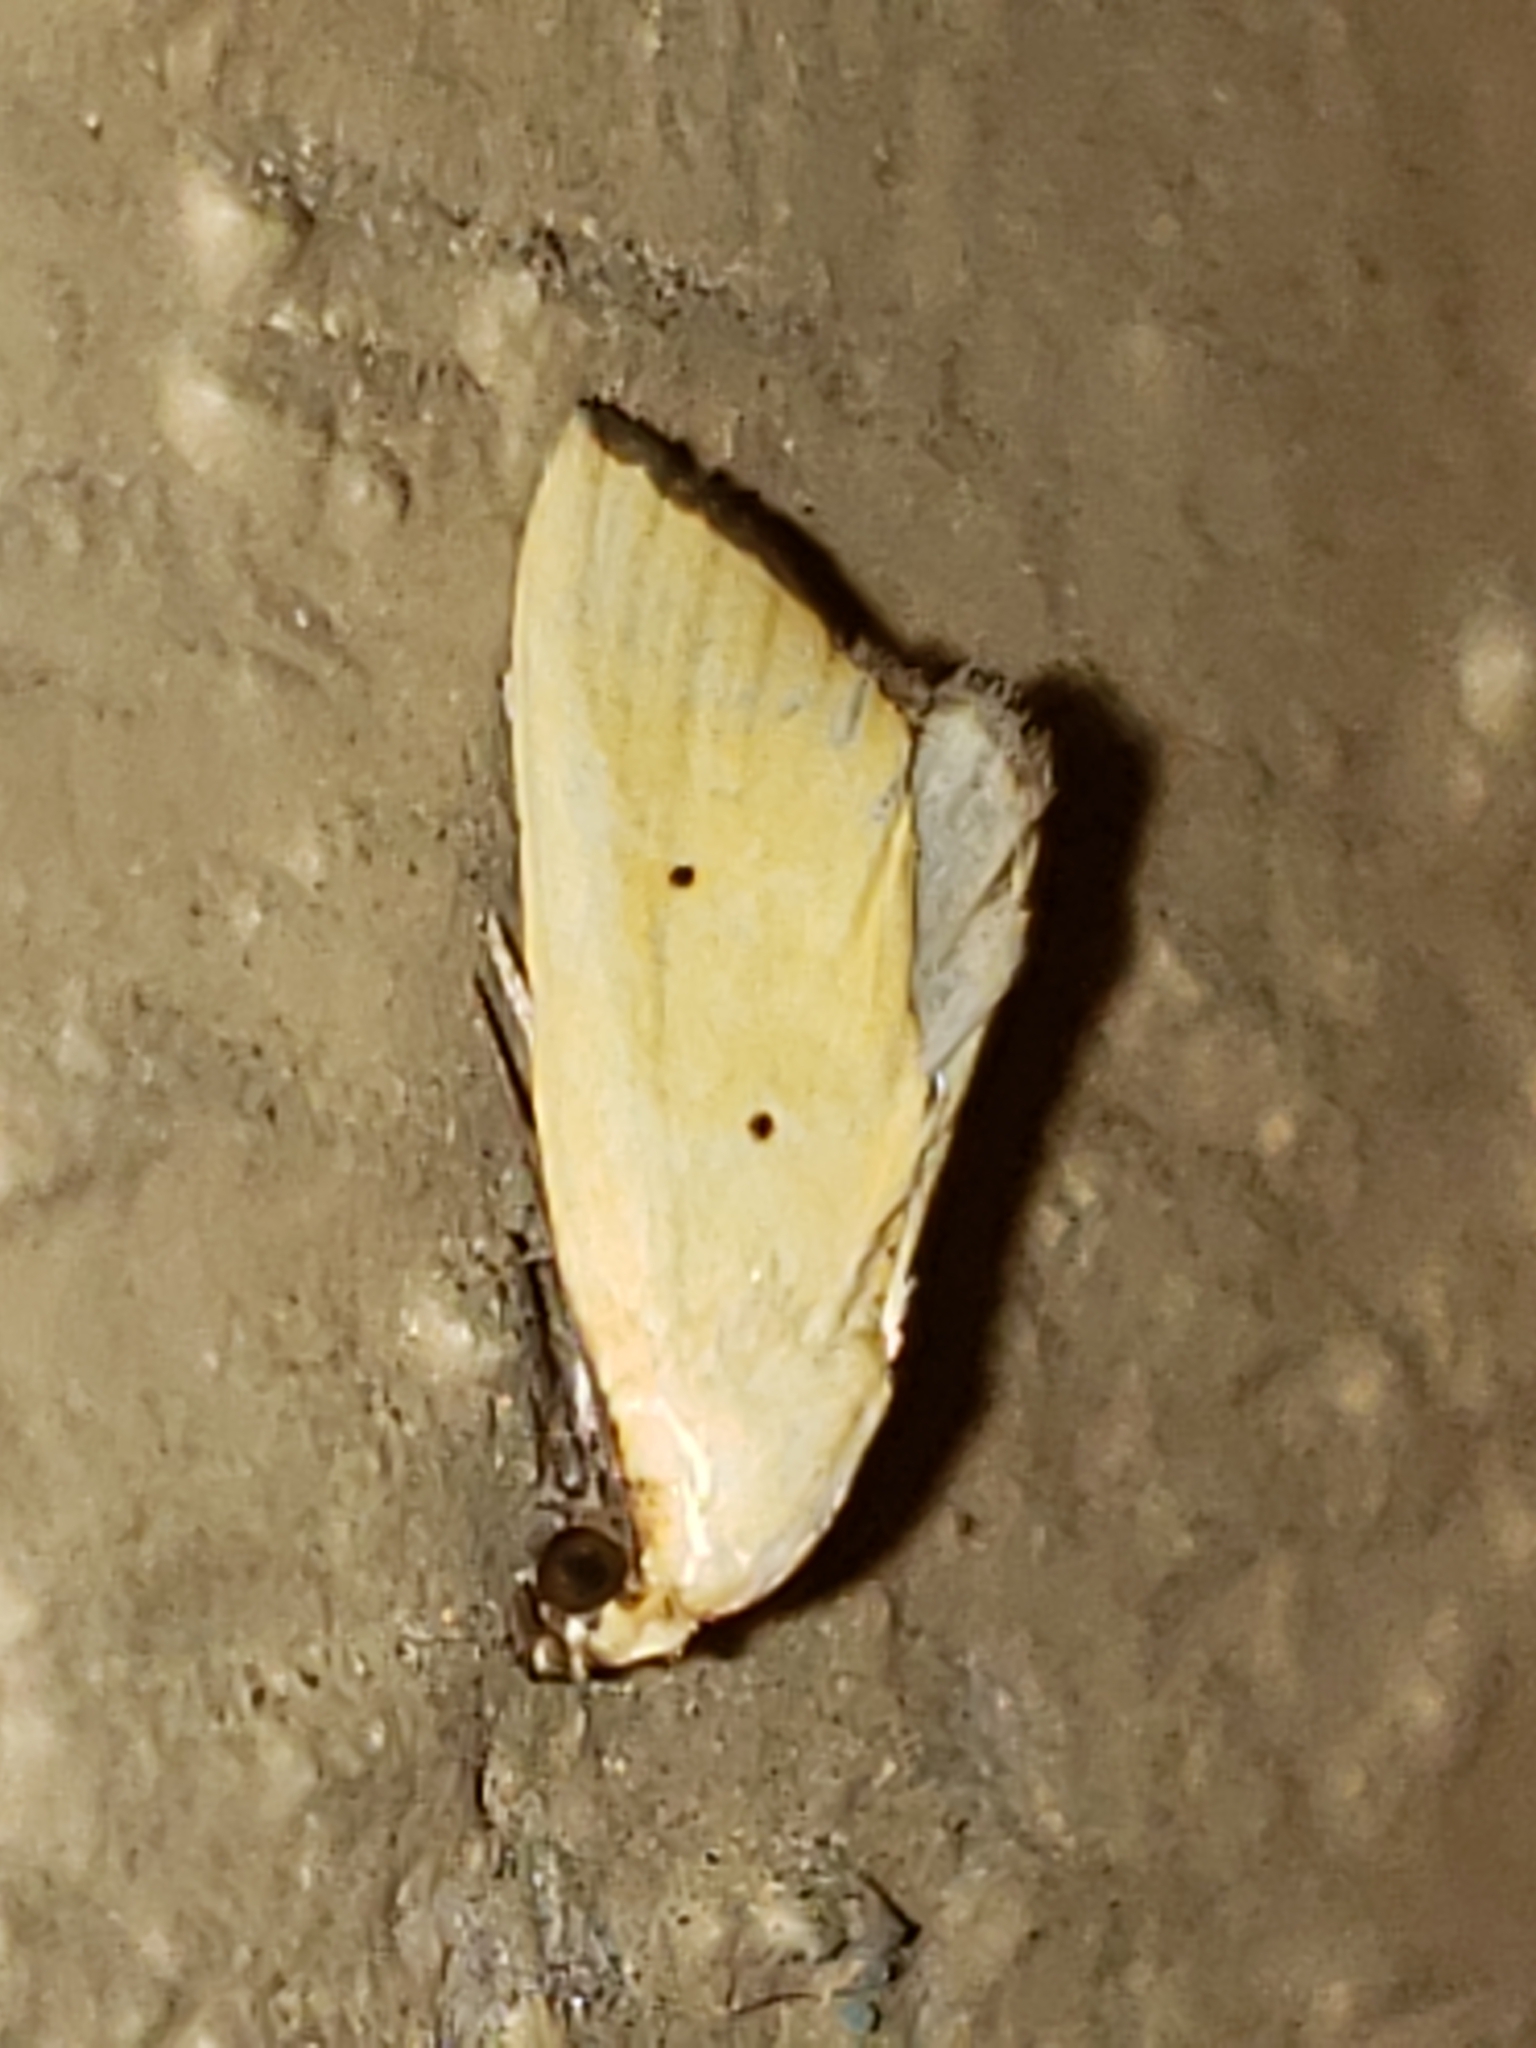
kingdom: Animalia
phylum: Arthropoda
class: Insecta
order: Lepidoptera
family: Noctuidae
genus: Marimatha
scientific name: Marimatha nigrofimbria
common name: Black-bordered lemon moth
